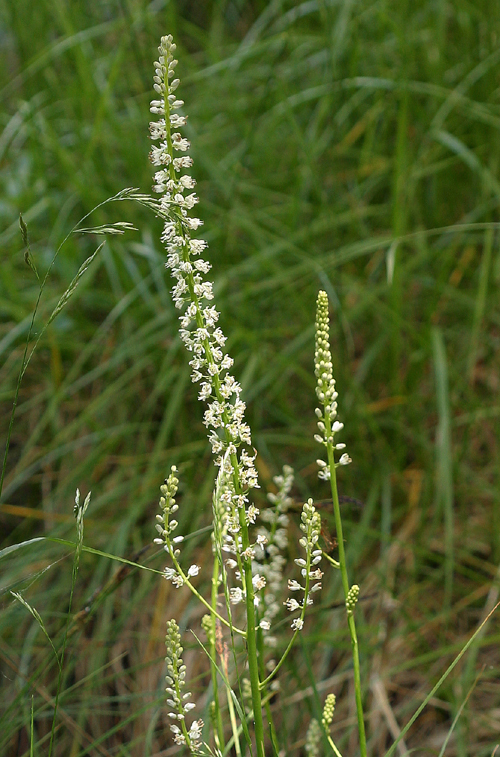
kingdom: Plantae
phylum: Tracheophyta
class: Liliopsida
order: Asparagales
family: Asparagaceae
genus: Hastingsia
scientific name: Hastingsia alba
